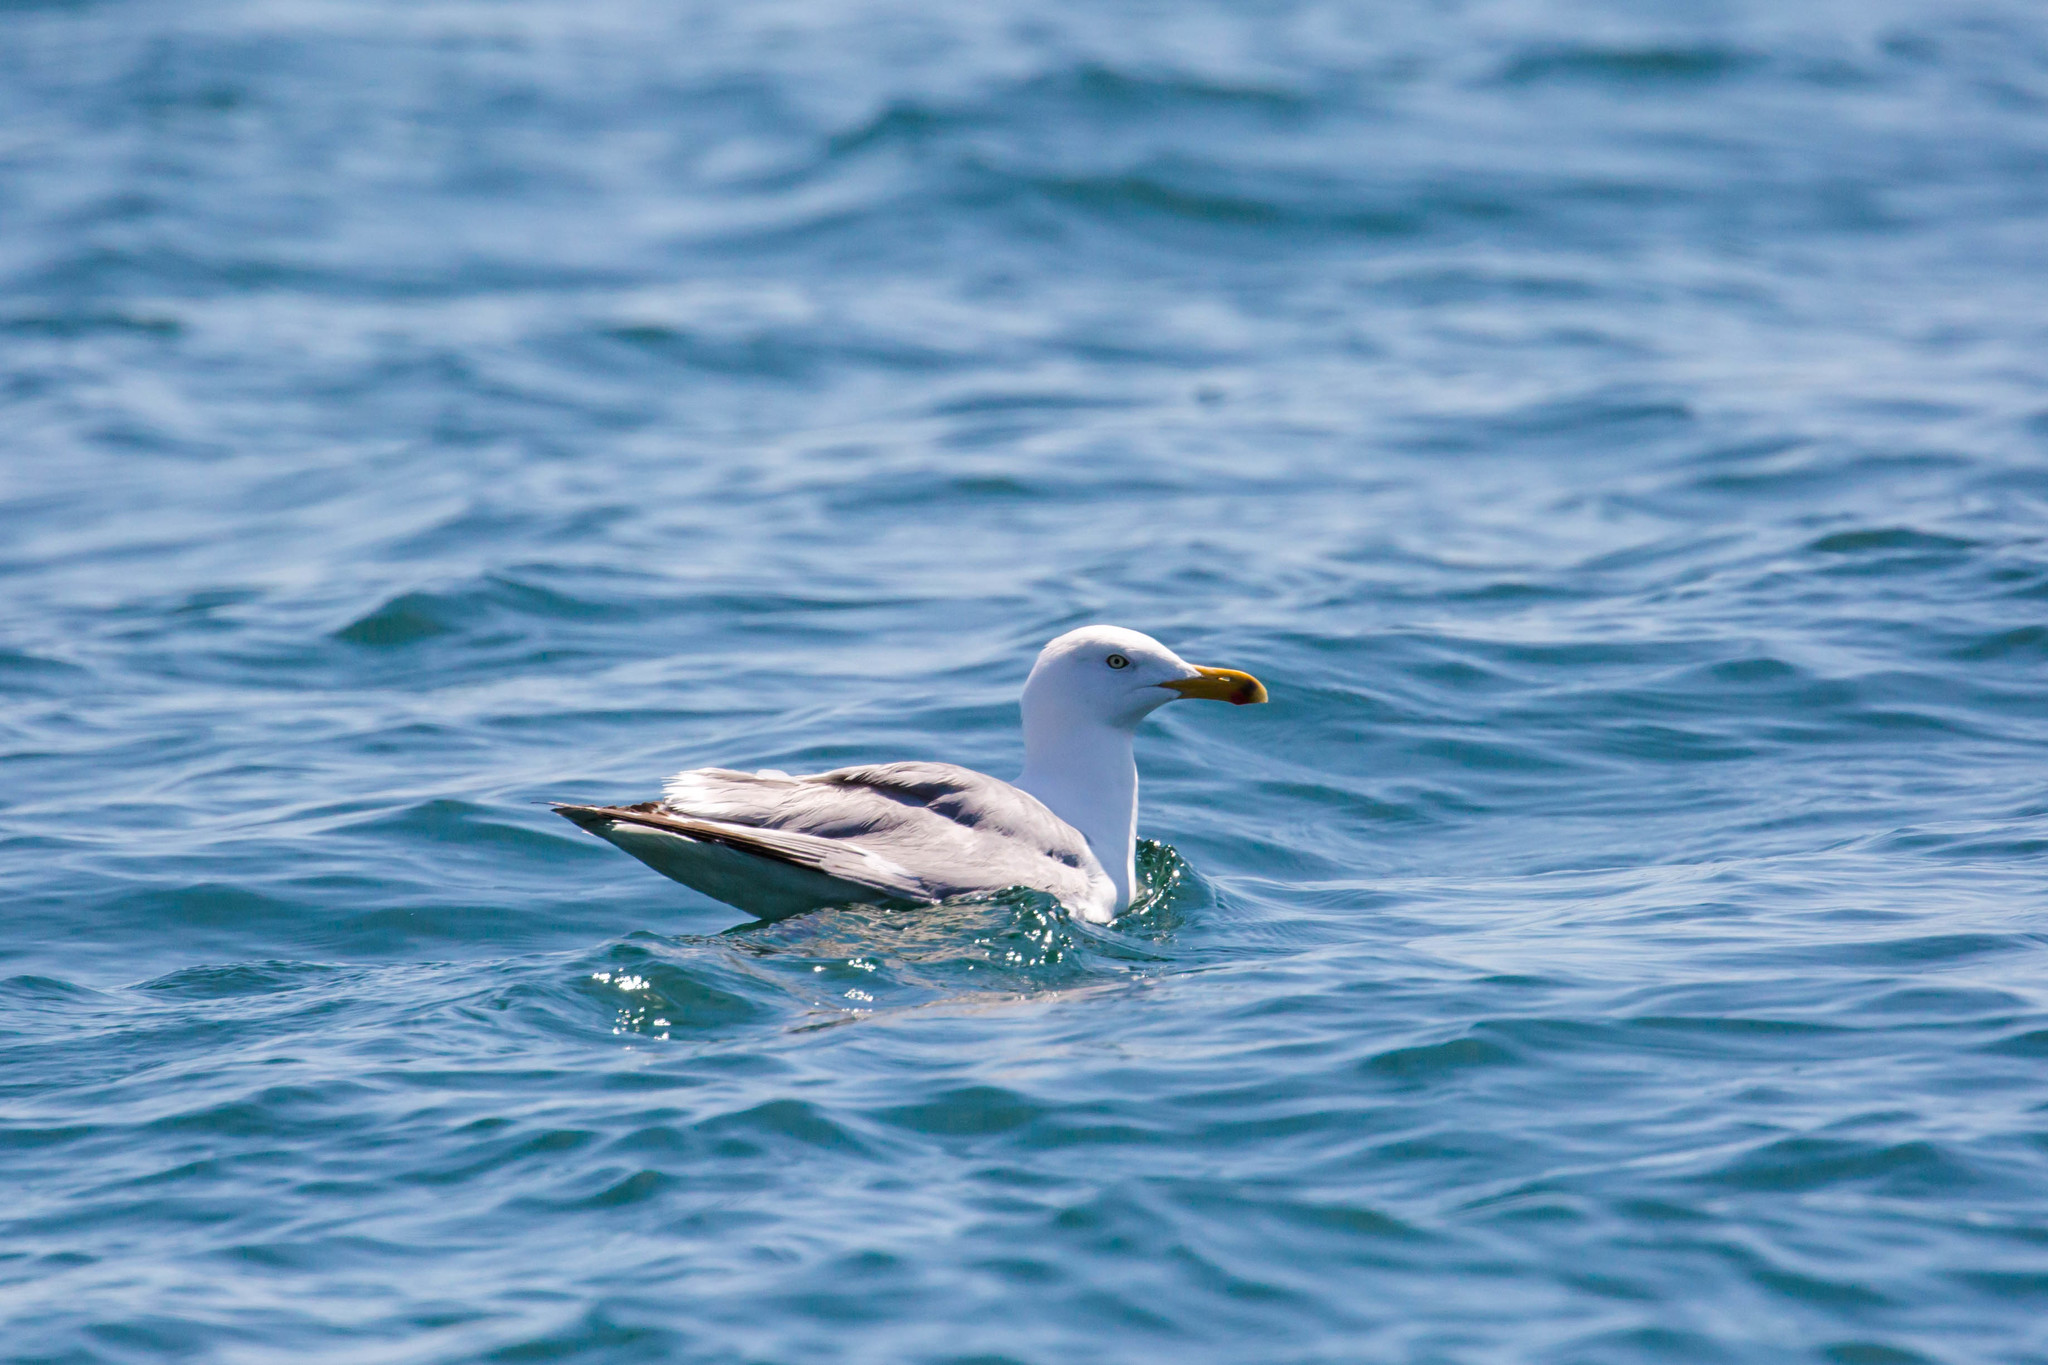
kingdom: Animalia
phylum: Chordata
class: Aves
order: Charadriiformes
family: Laridae
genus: Larus
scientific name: Larus smithsonianus
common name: American herring gull
